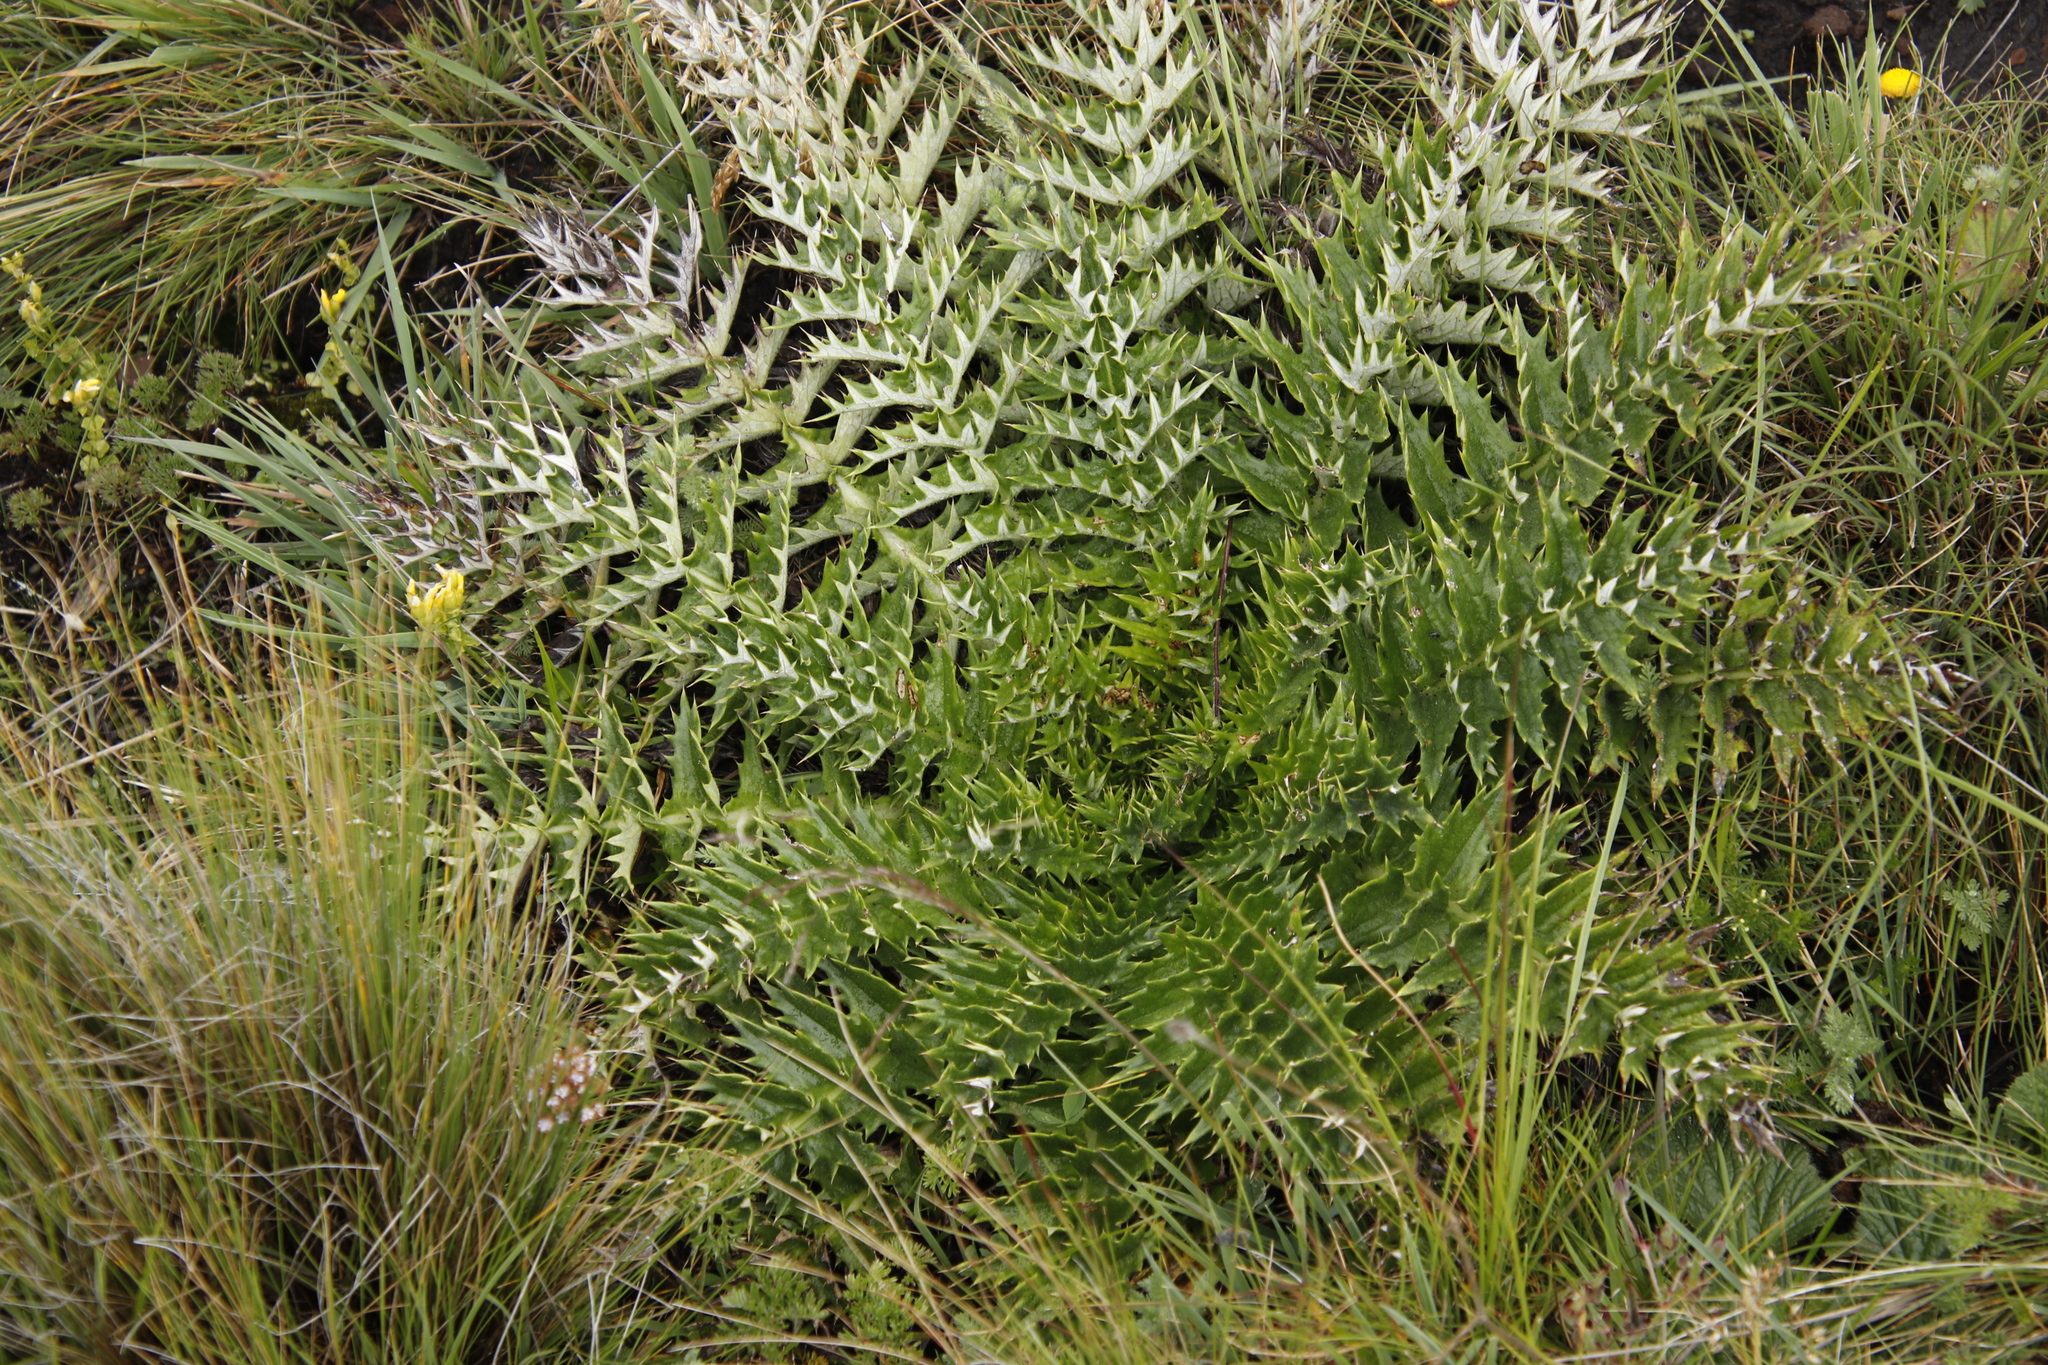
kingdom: Plantae
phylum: Tracheophyta
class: Magnoliopsida
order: Asterales
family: Asteraceae
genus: Berkheya
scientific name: Berkheya multijuga
